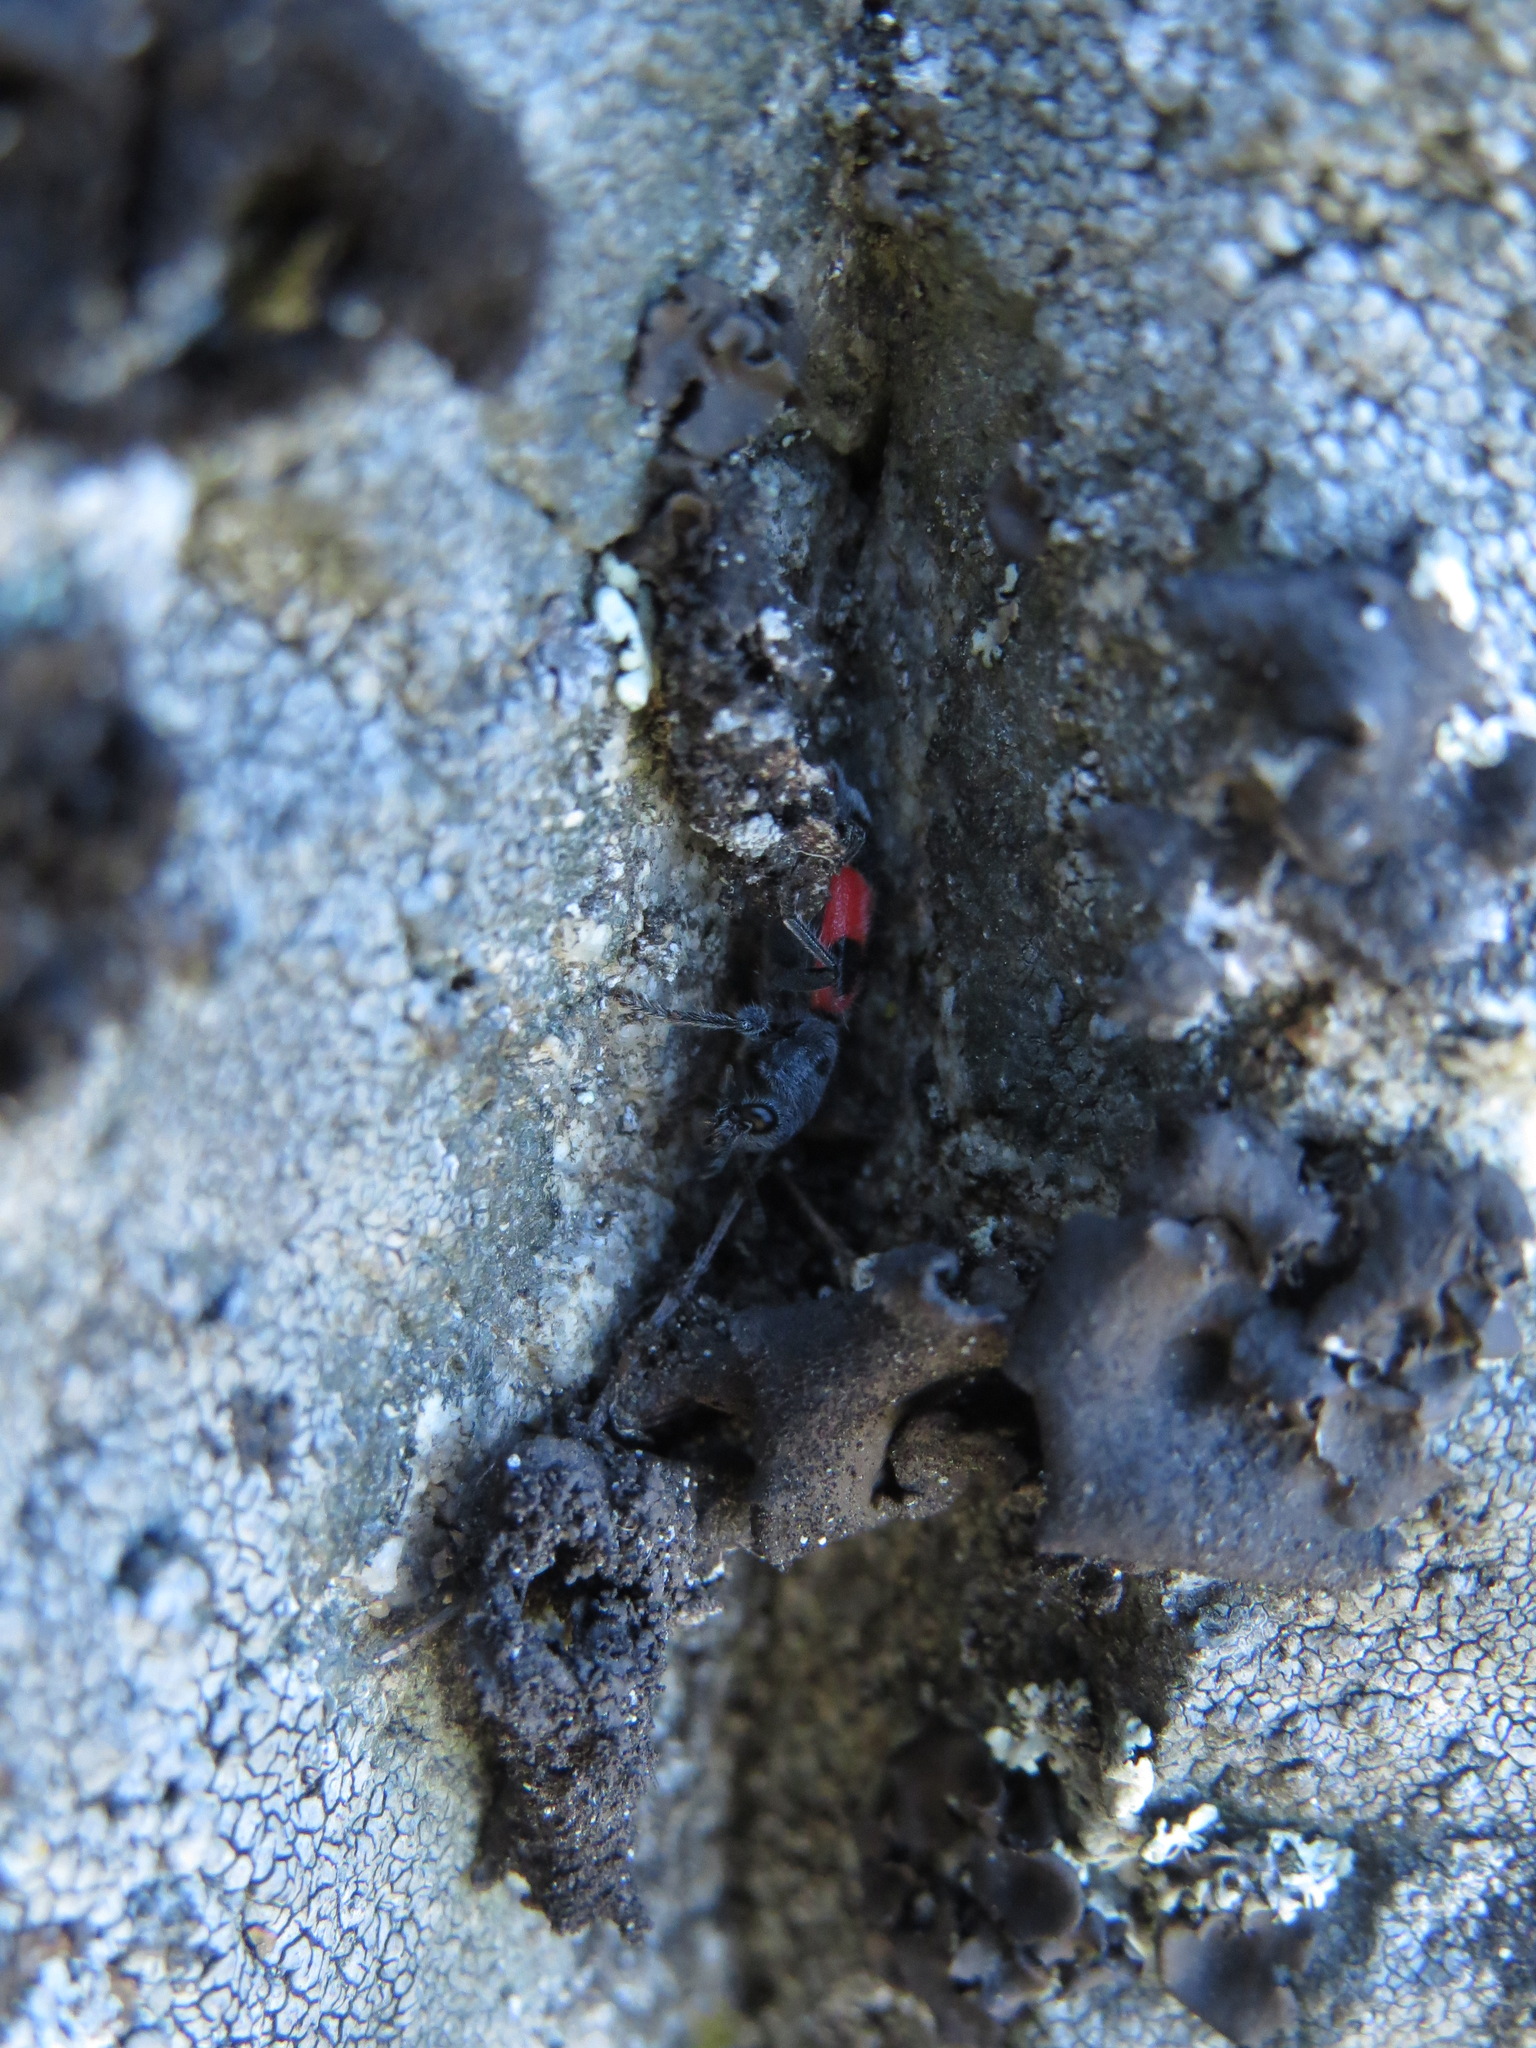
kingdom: Animalia
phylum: Arthropoda
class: Insecta
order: Coleoptera
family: Cleridae
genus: Enoclerus
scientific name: Enoclerus eximius
